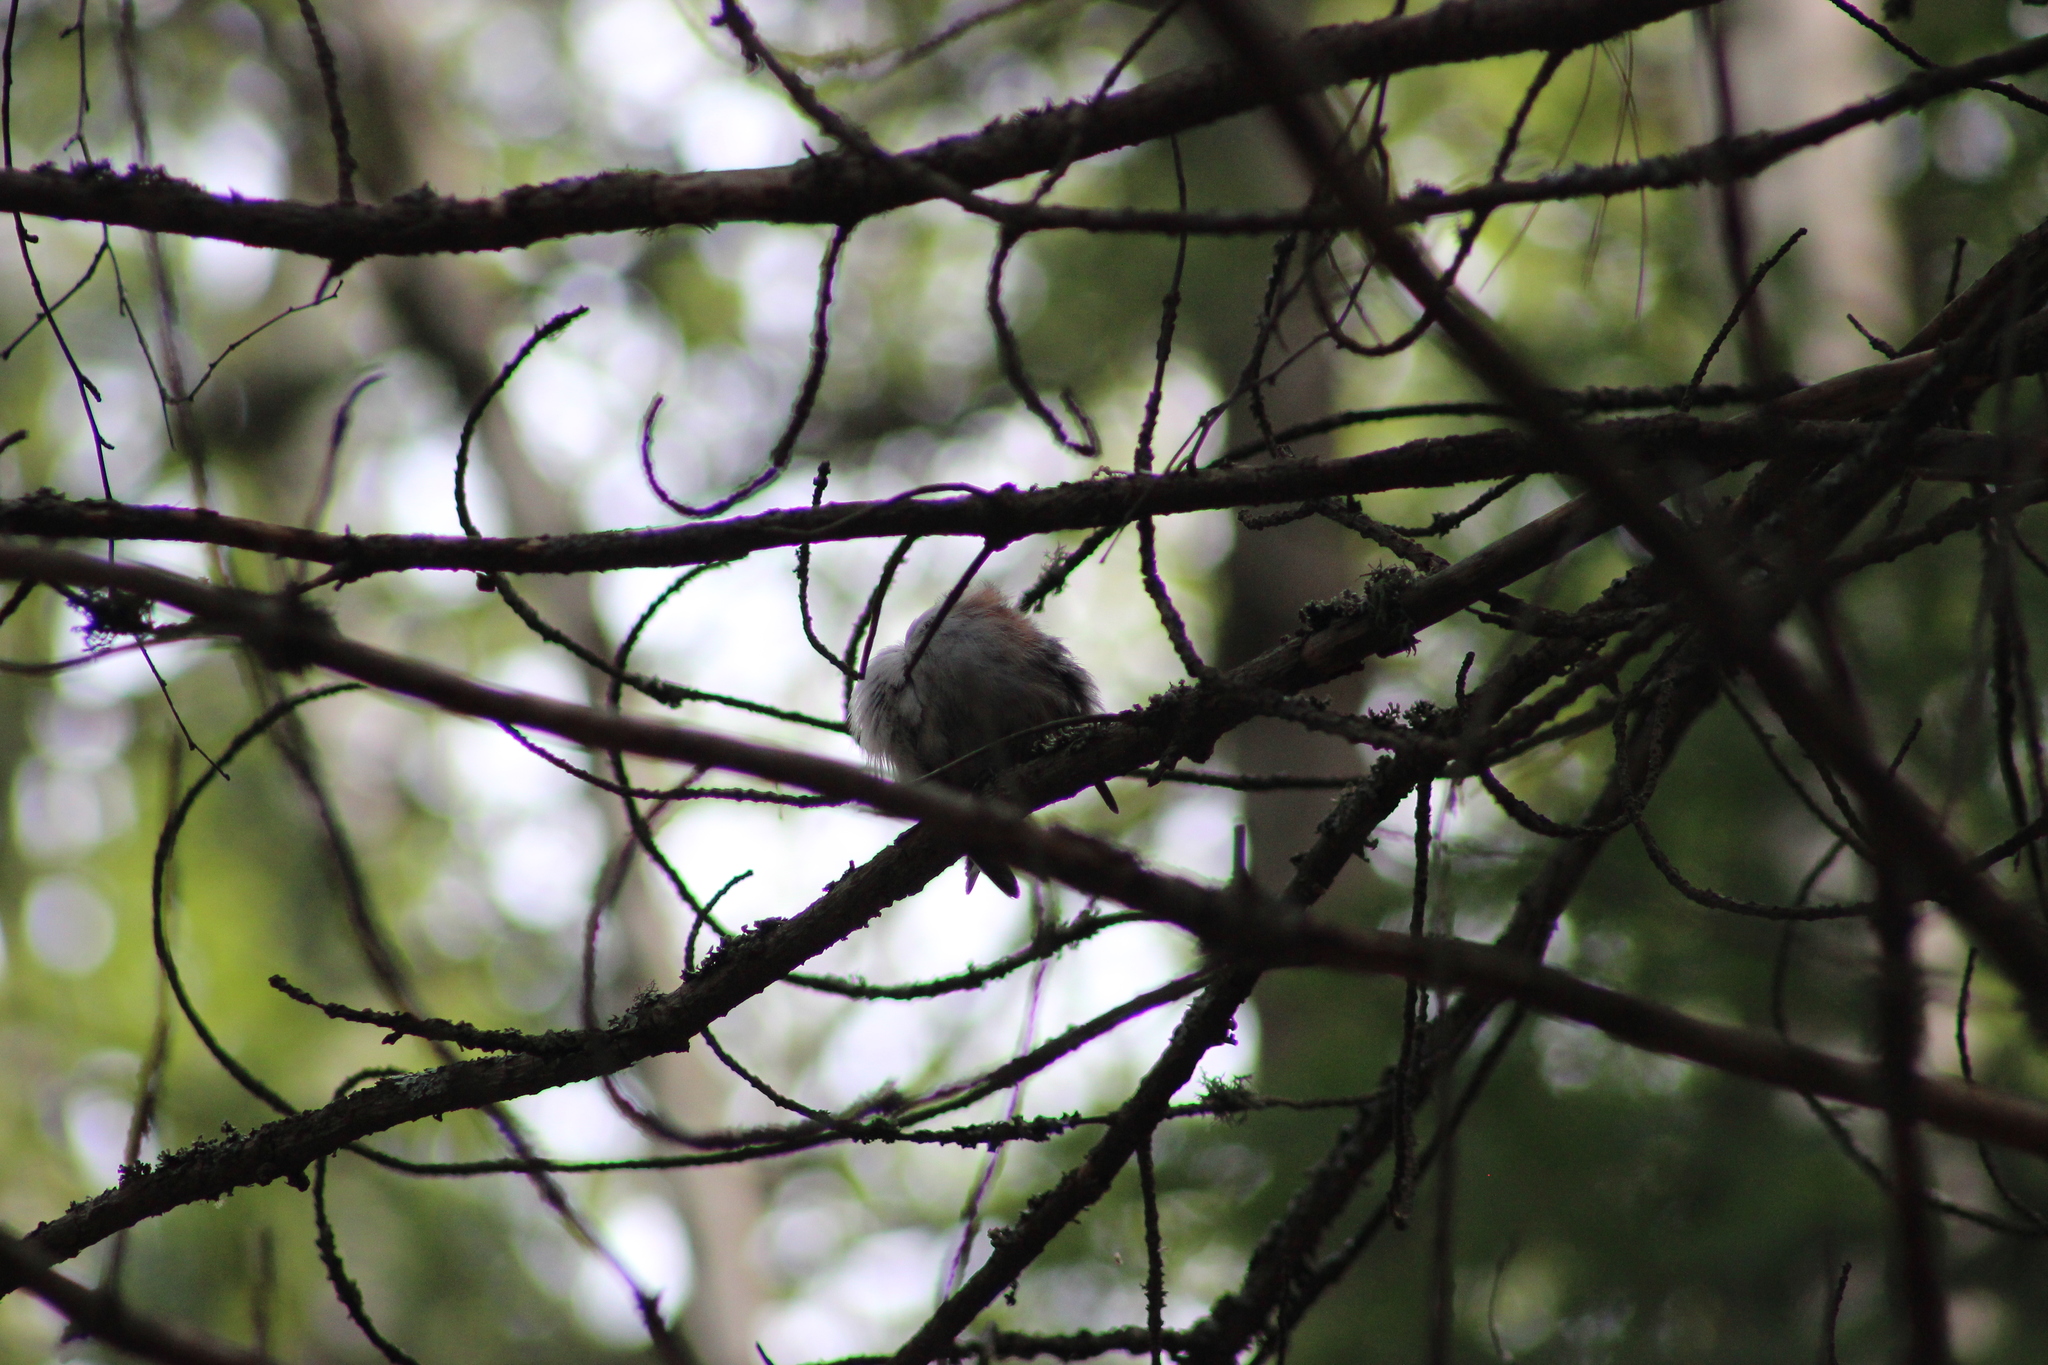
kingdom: Animalia
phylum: Chordata
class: Aves
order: Passeriformes
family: Sittidae
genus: Sitta
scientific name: Sitta europaea
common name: Eurasian nuthatch
